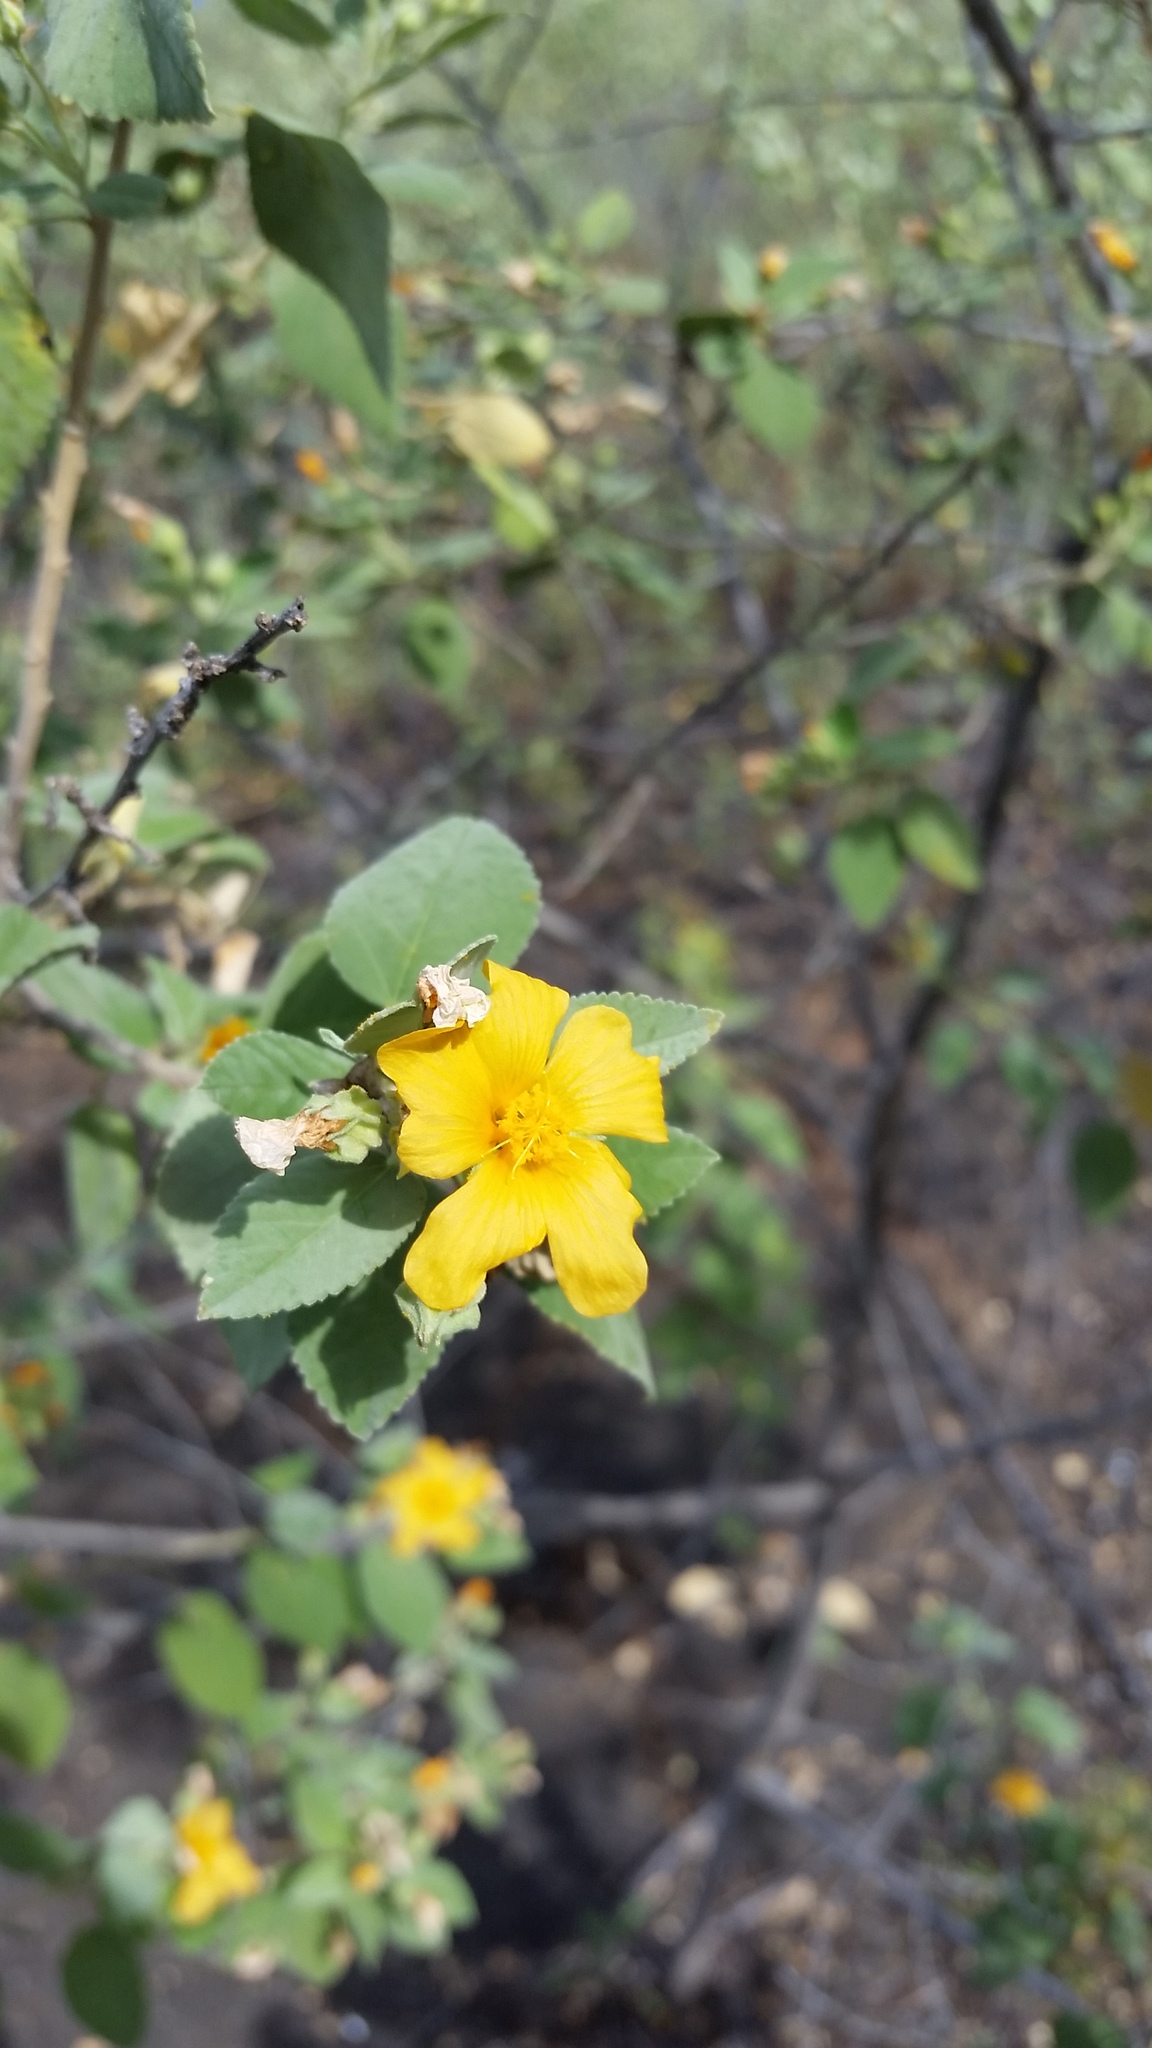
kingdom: Plantae
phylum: Tracheophyta
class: Magnoliopsida
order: Malvales
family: Malvaceae
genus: Sida
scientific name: Sida fallax
